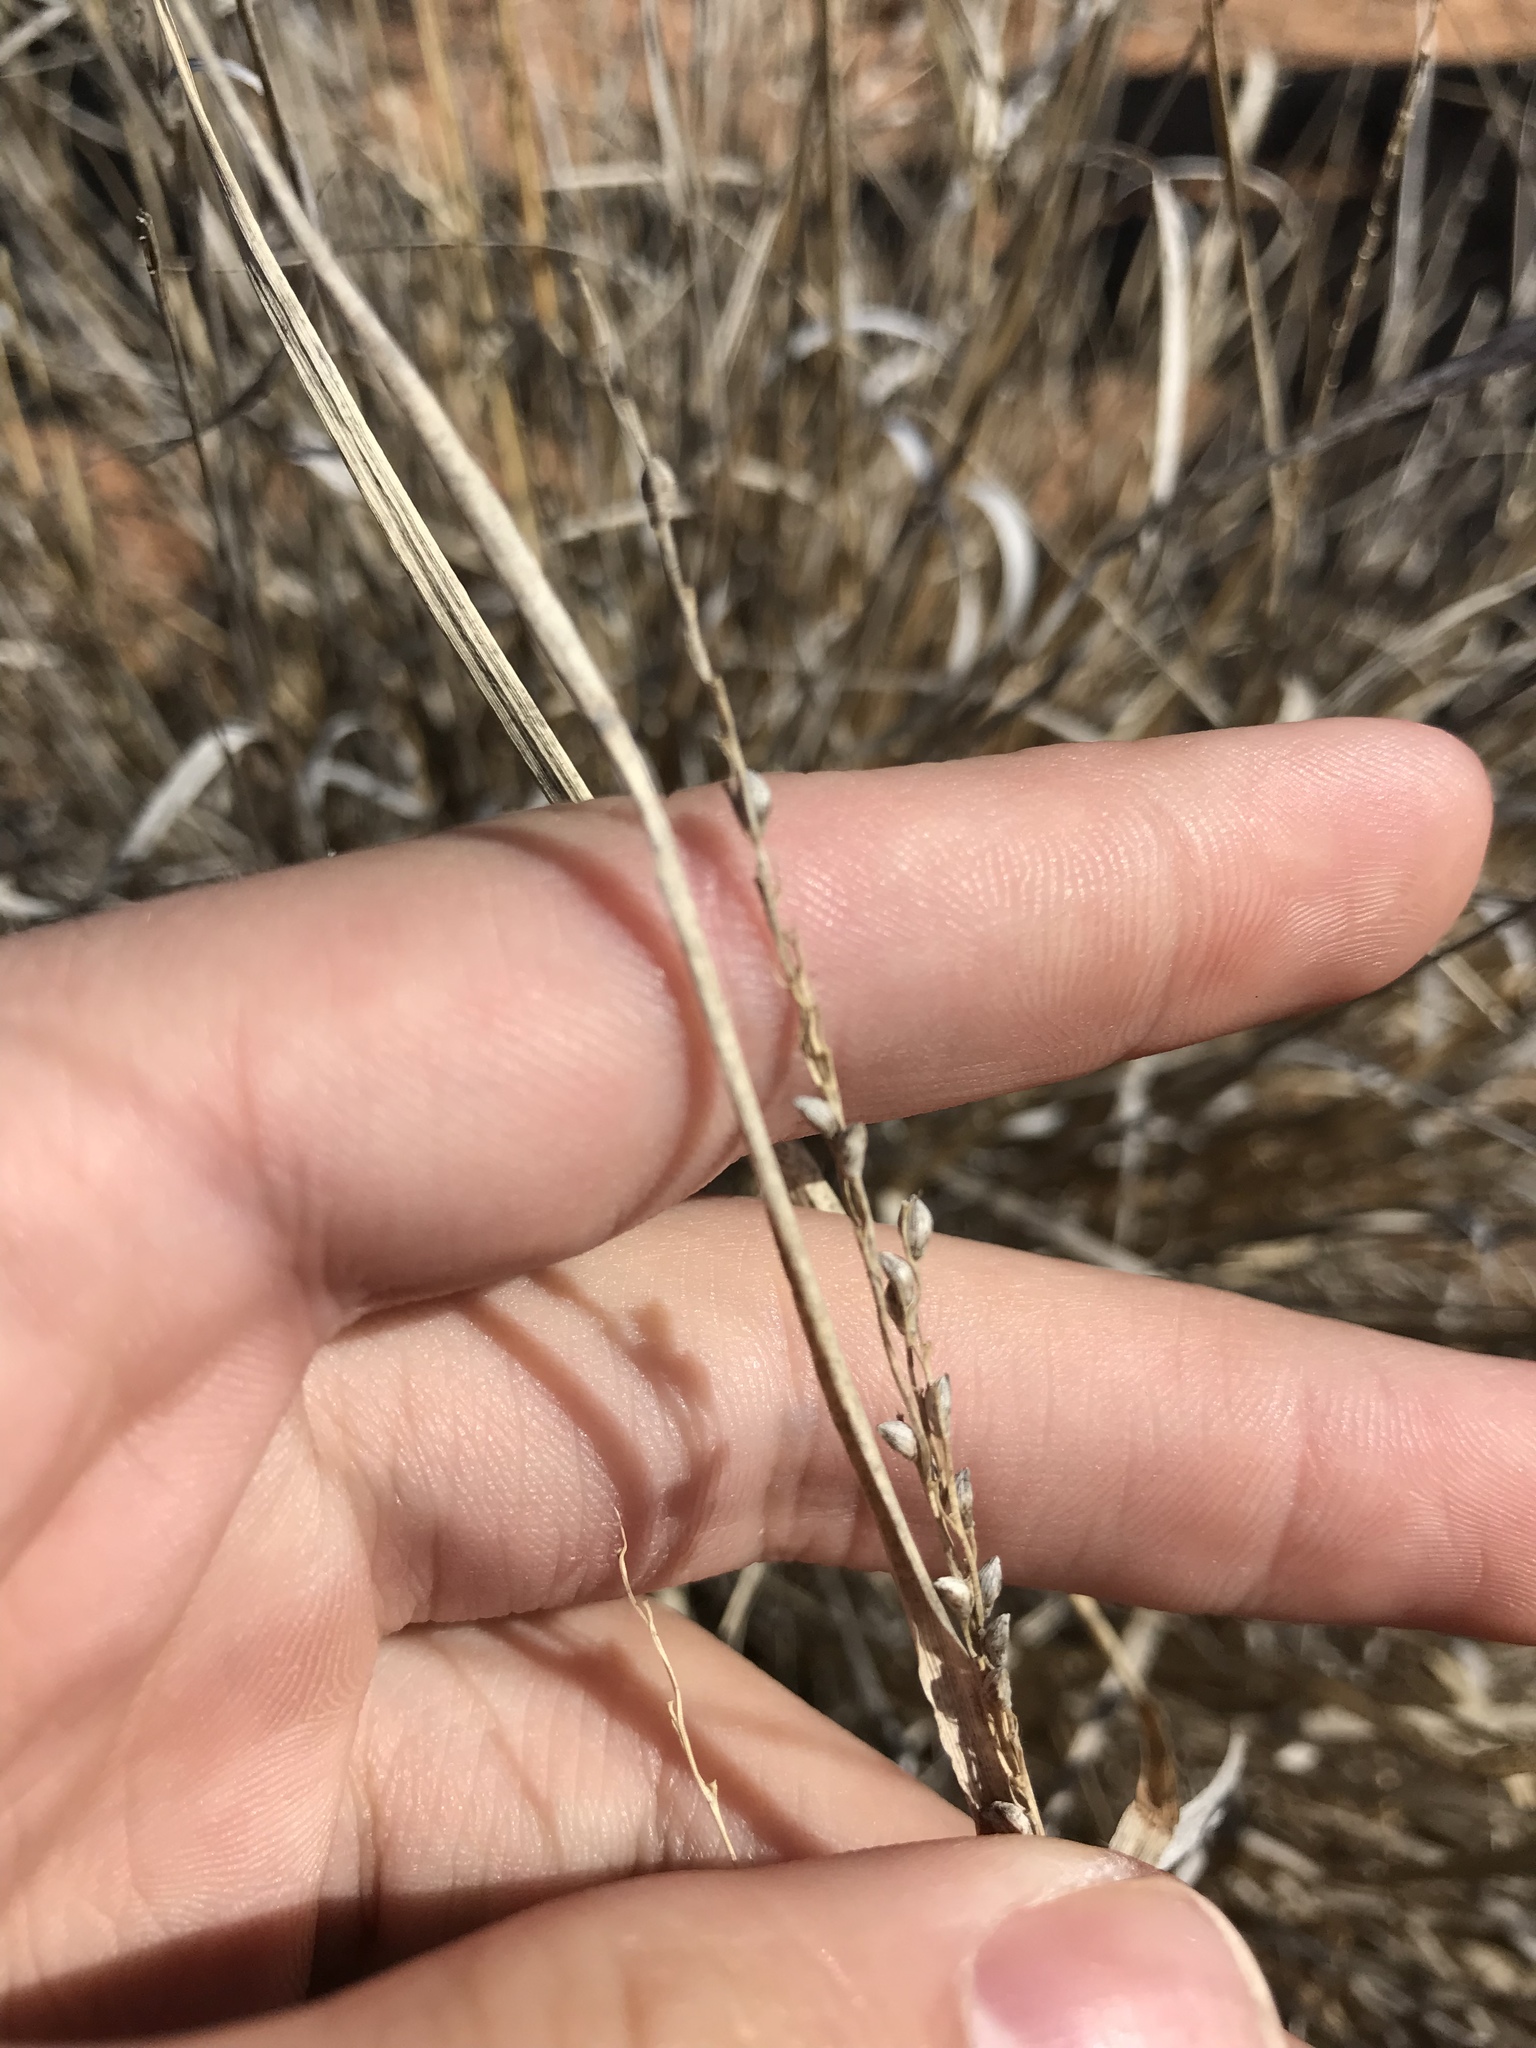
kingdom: Plantae
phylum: Tracheophyta
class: Liliopsida
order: Poales
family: Poaceae
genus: Setaria
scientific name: Setaria reverchonii
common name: Reverchon's bristle grass
